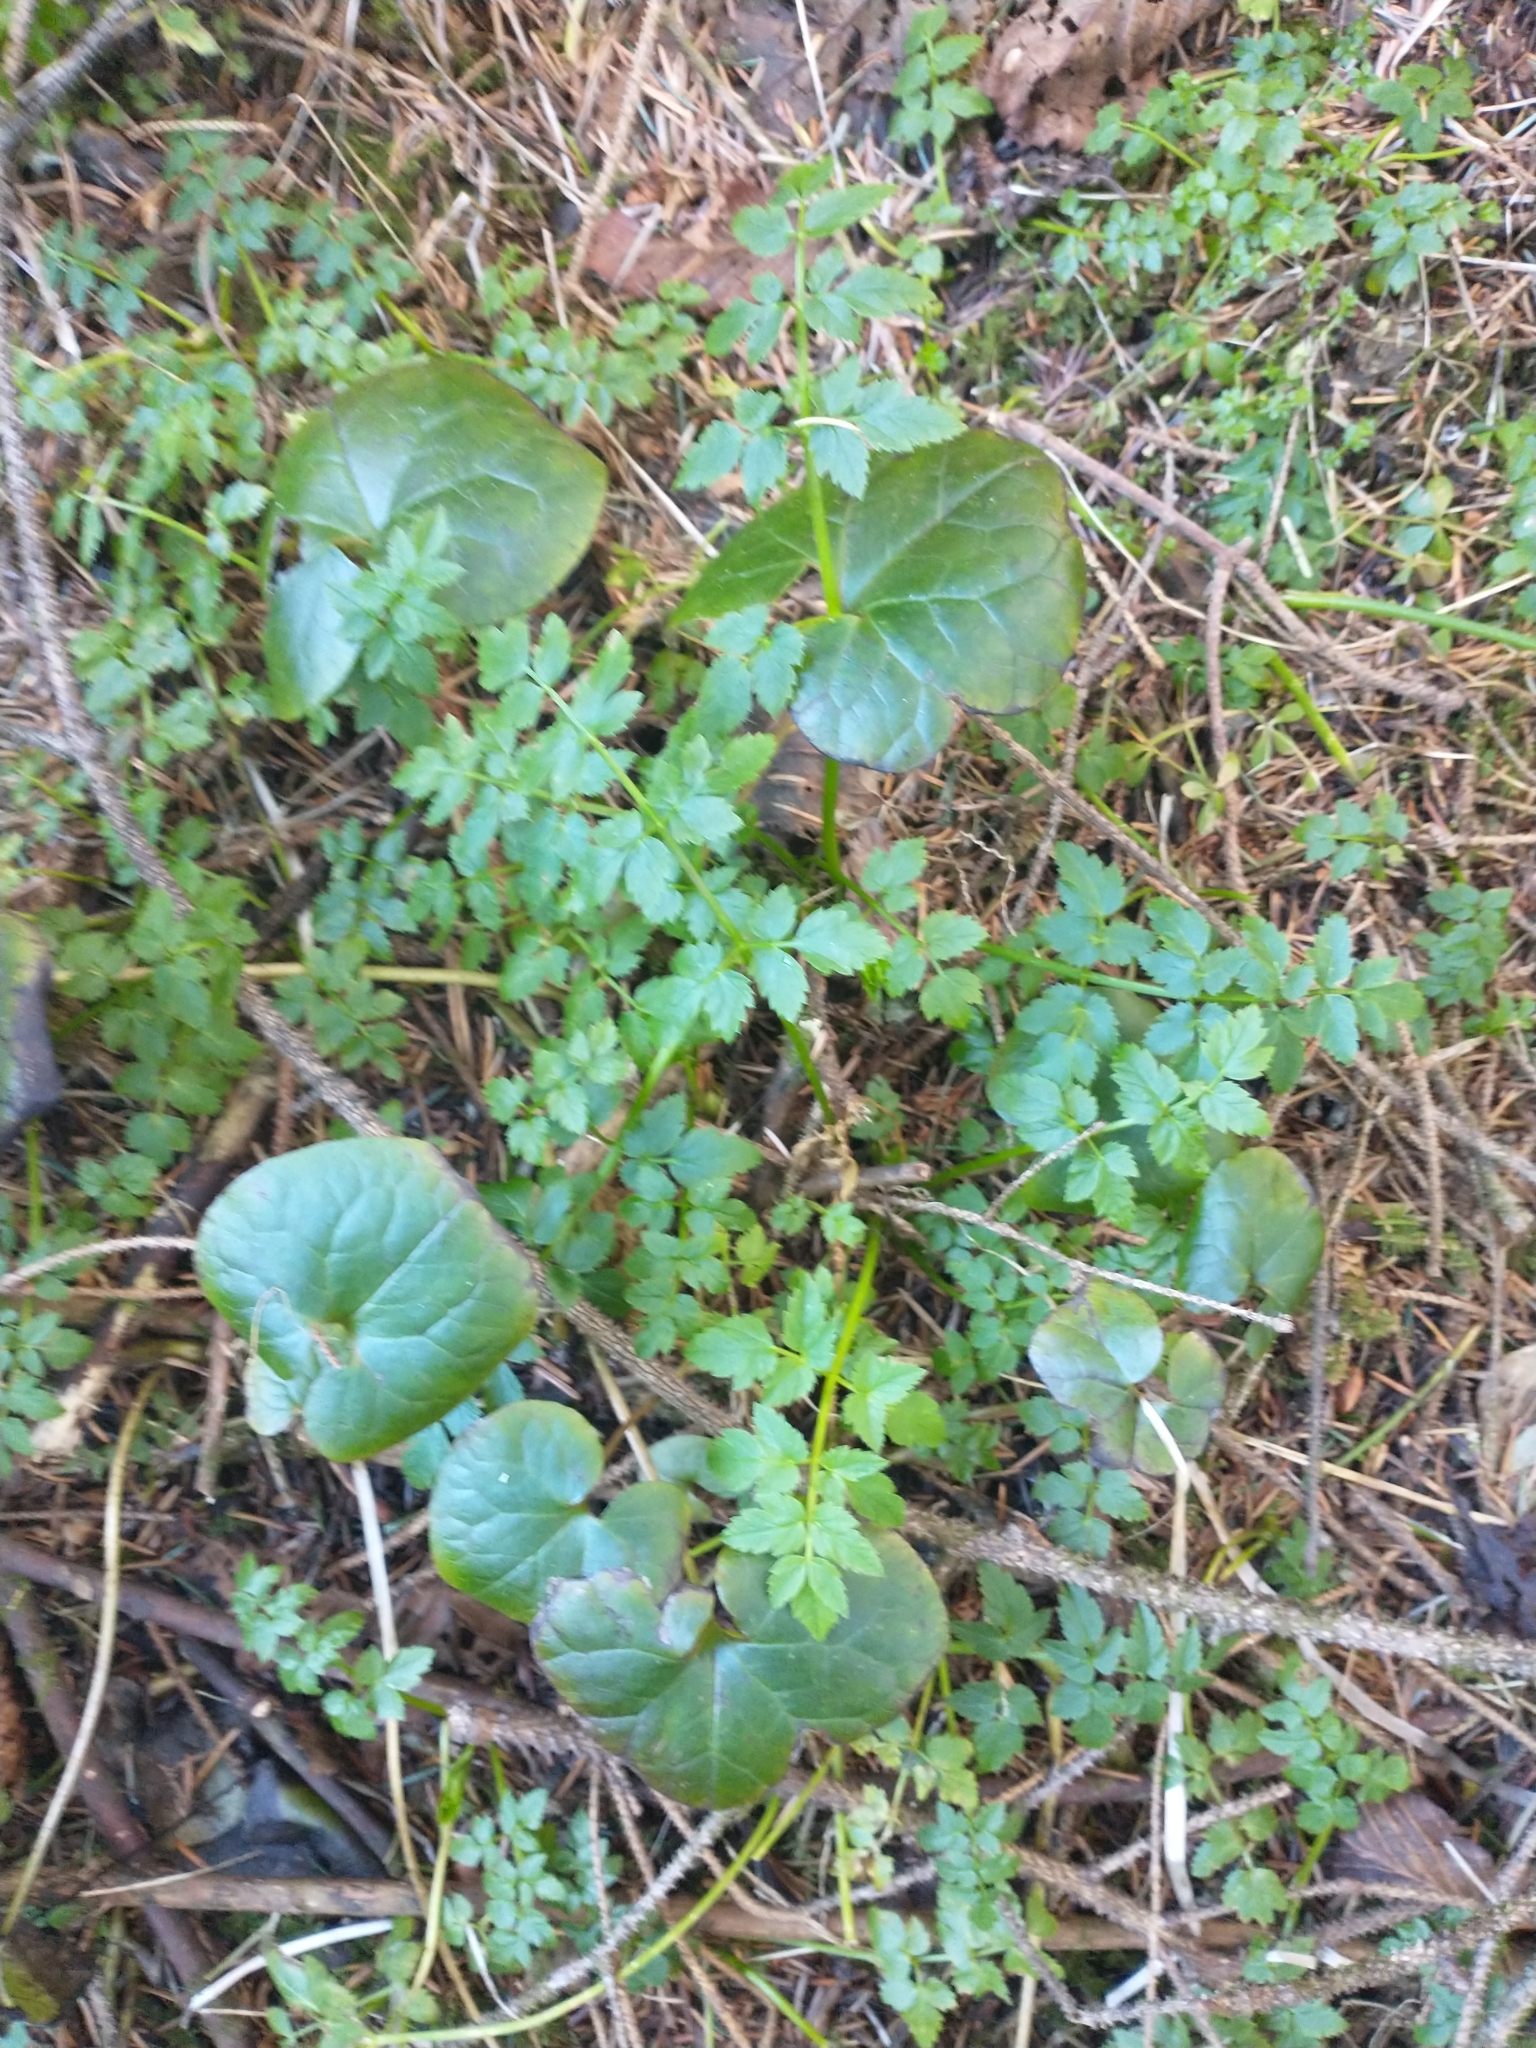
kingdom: Plantae
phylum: Tracheophyta
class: Magnoliopsida
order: Piperales
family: Aristolochiaceae
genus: Asarum
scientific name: Asarum caudatum
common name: Wild ginger
